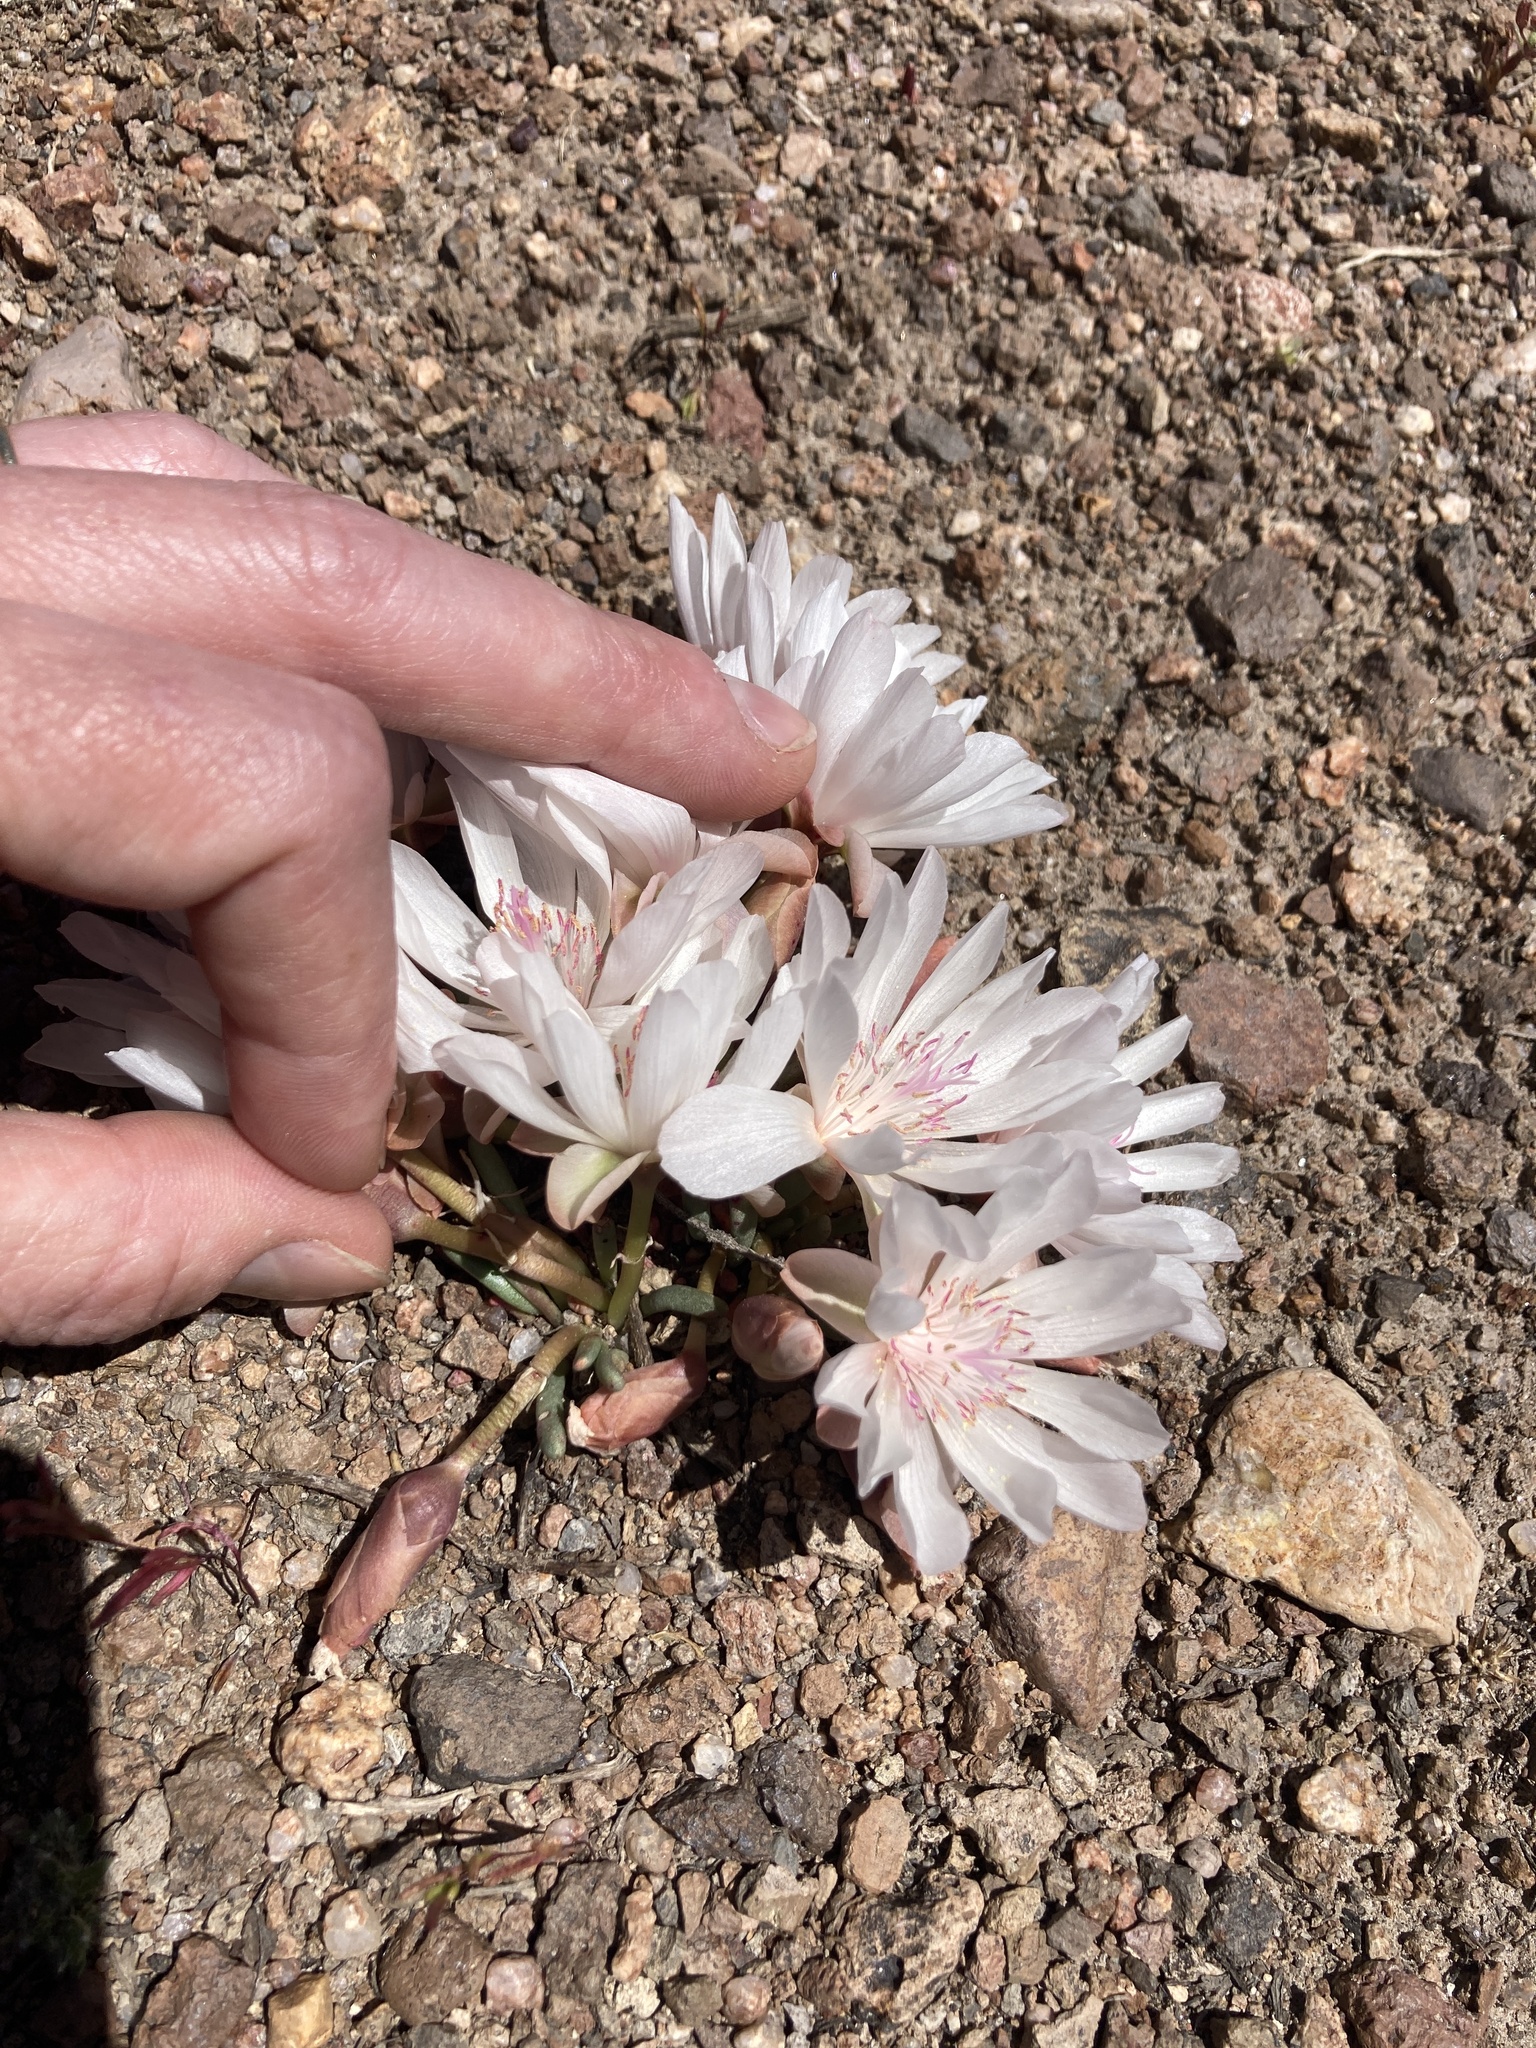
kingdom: Plantae
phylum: Tracheophyta
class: Magnoliopsida
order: Caryophyllales
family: Montiaceae
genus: Lewisia
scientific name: Lewisia rediviva
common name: Bitter-root
